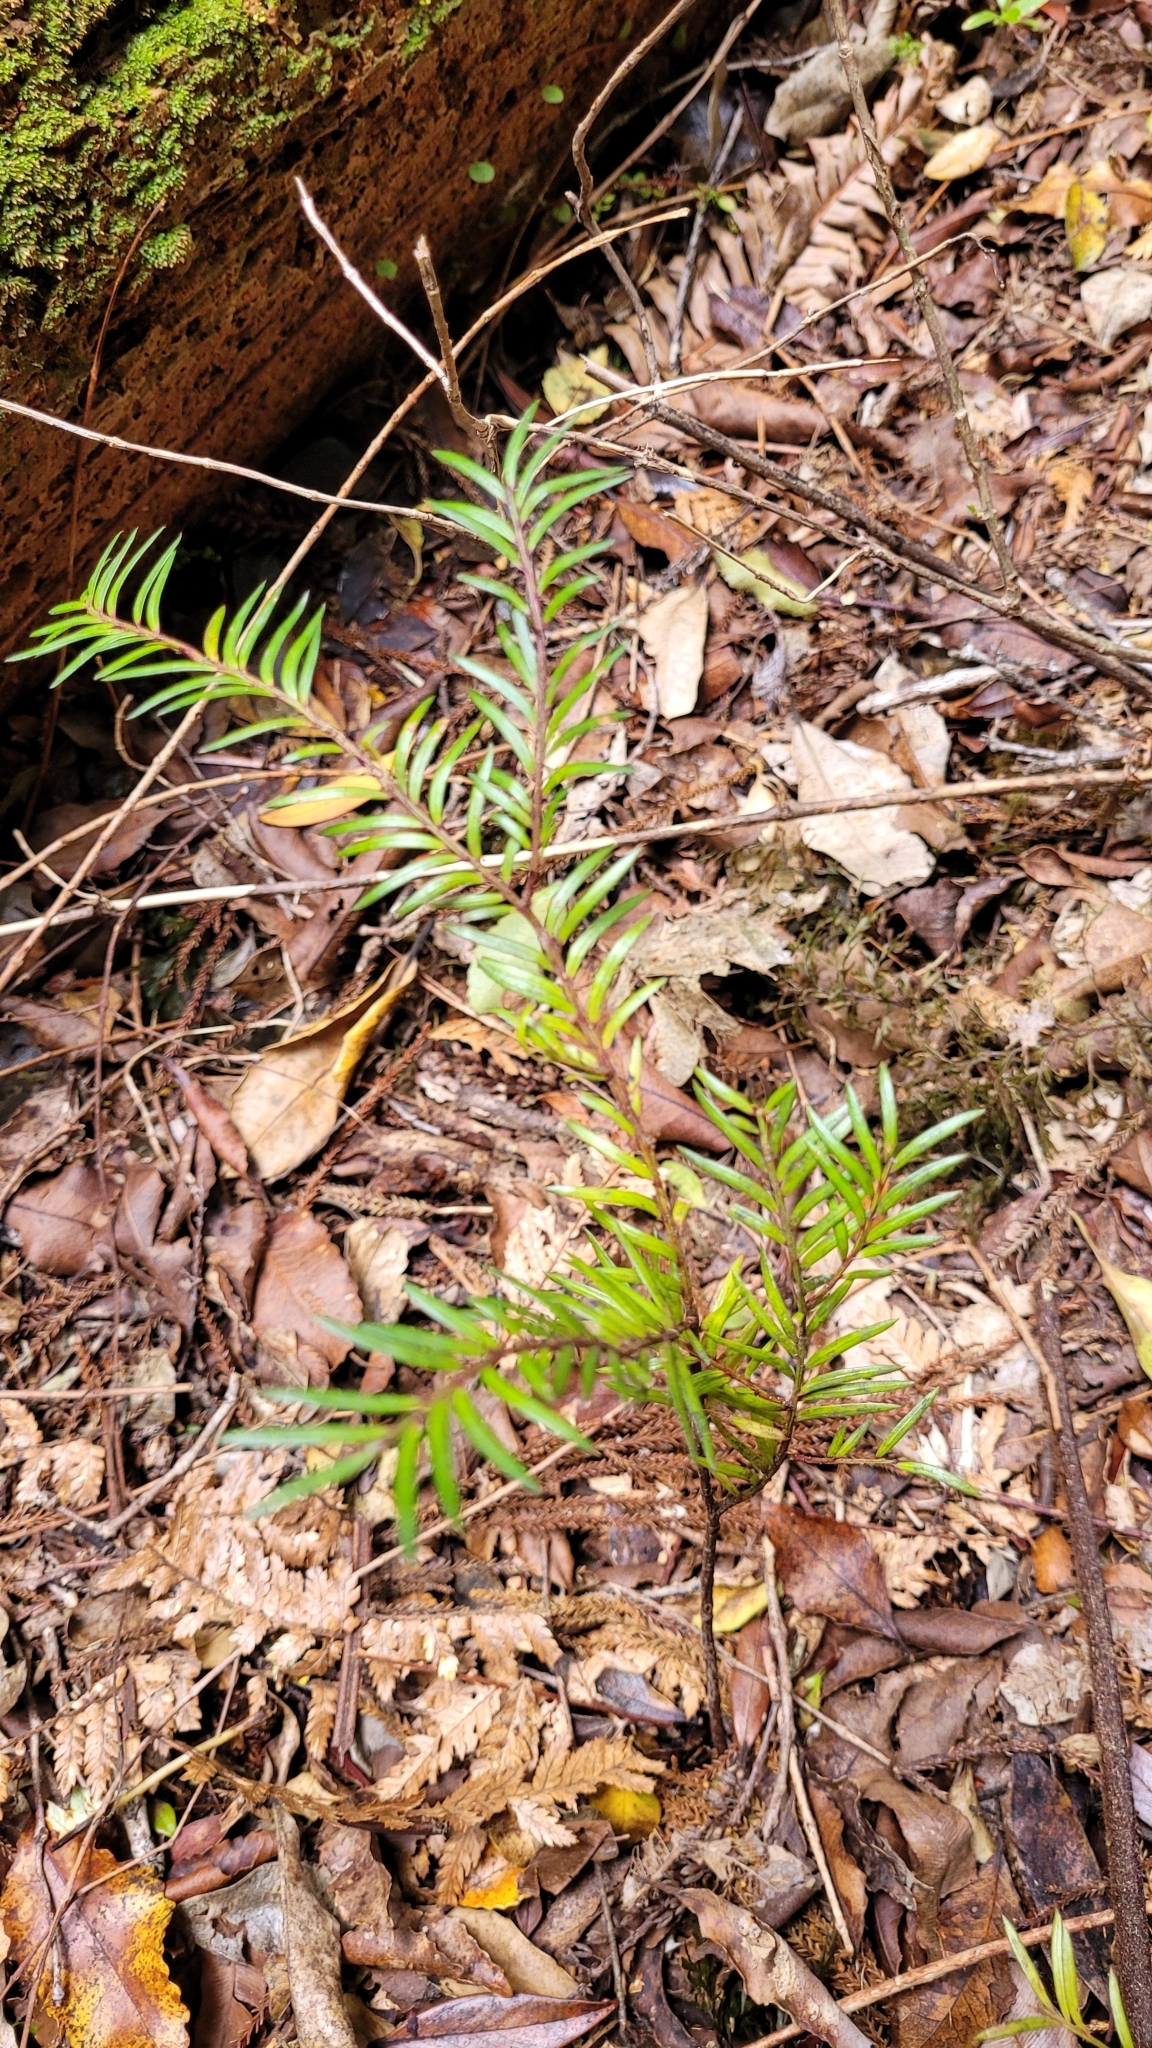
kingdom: Plantae
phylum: Tracheophyta
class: Pinopsida
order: Pinales
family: Podocarpaceae
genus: Prumnopitys
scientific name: Prumnopitys ferruginea
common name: Brown pine
